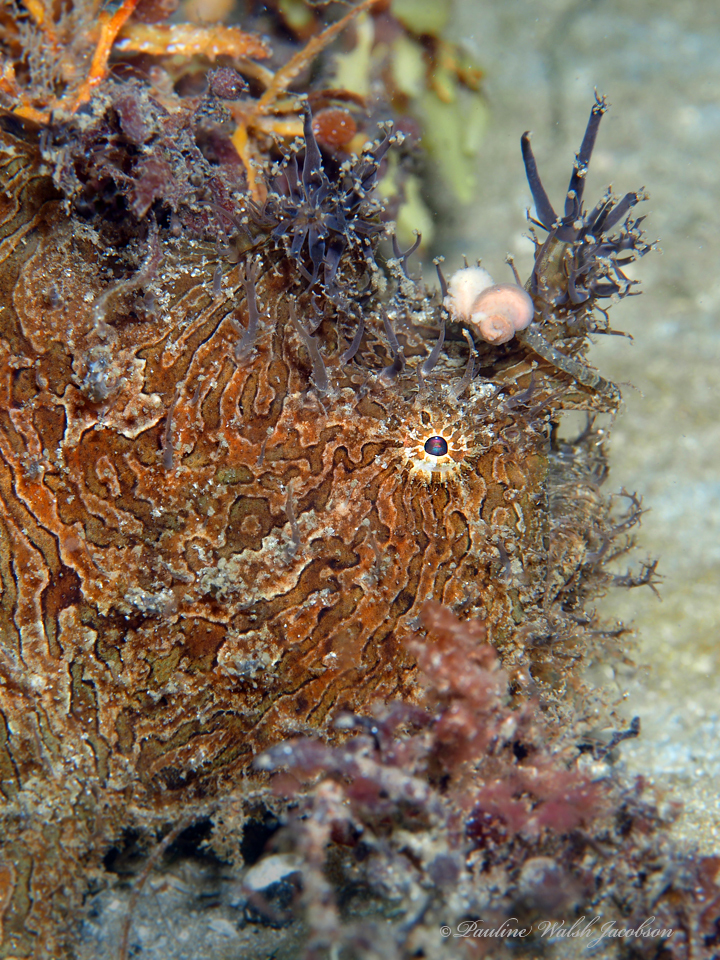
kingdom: Animalia
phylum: Chordata
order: Lophiiformes
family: Antennariidae
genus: Antennarius
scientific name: Antennarius striatus
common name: Striated frogfish
